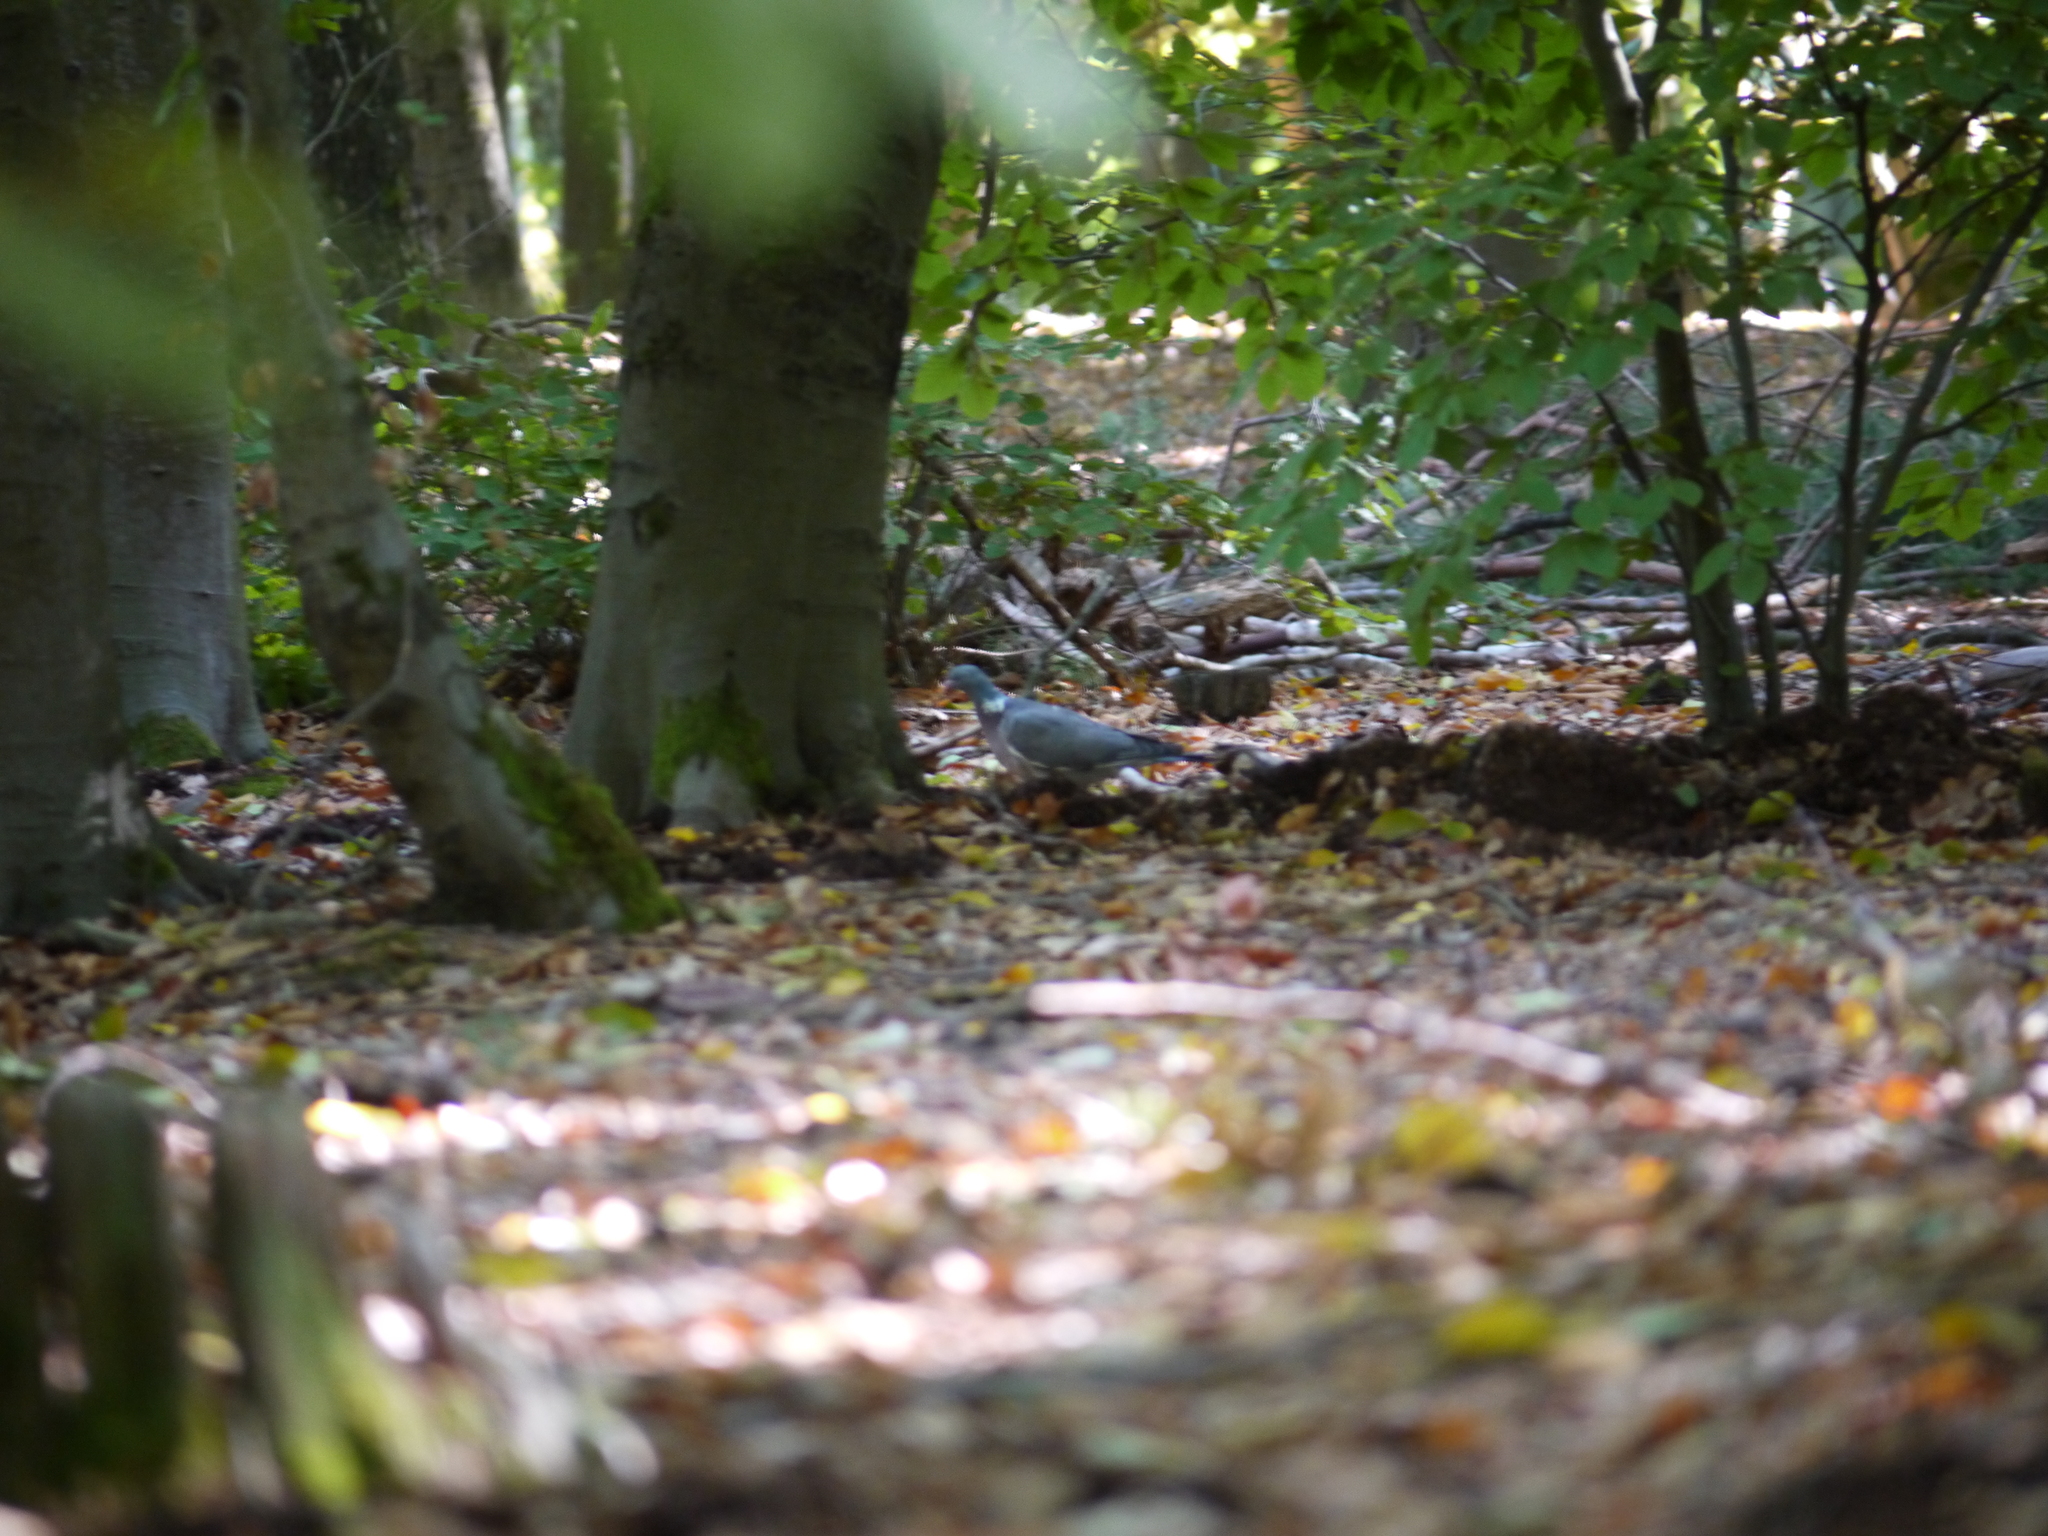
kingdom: Animalia
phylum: Chordata
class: Aves
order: Columbiformes
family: Columbidae
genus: Columba
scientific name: Columba palumbus
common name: Common wood pigeon
